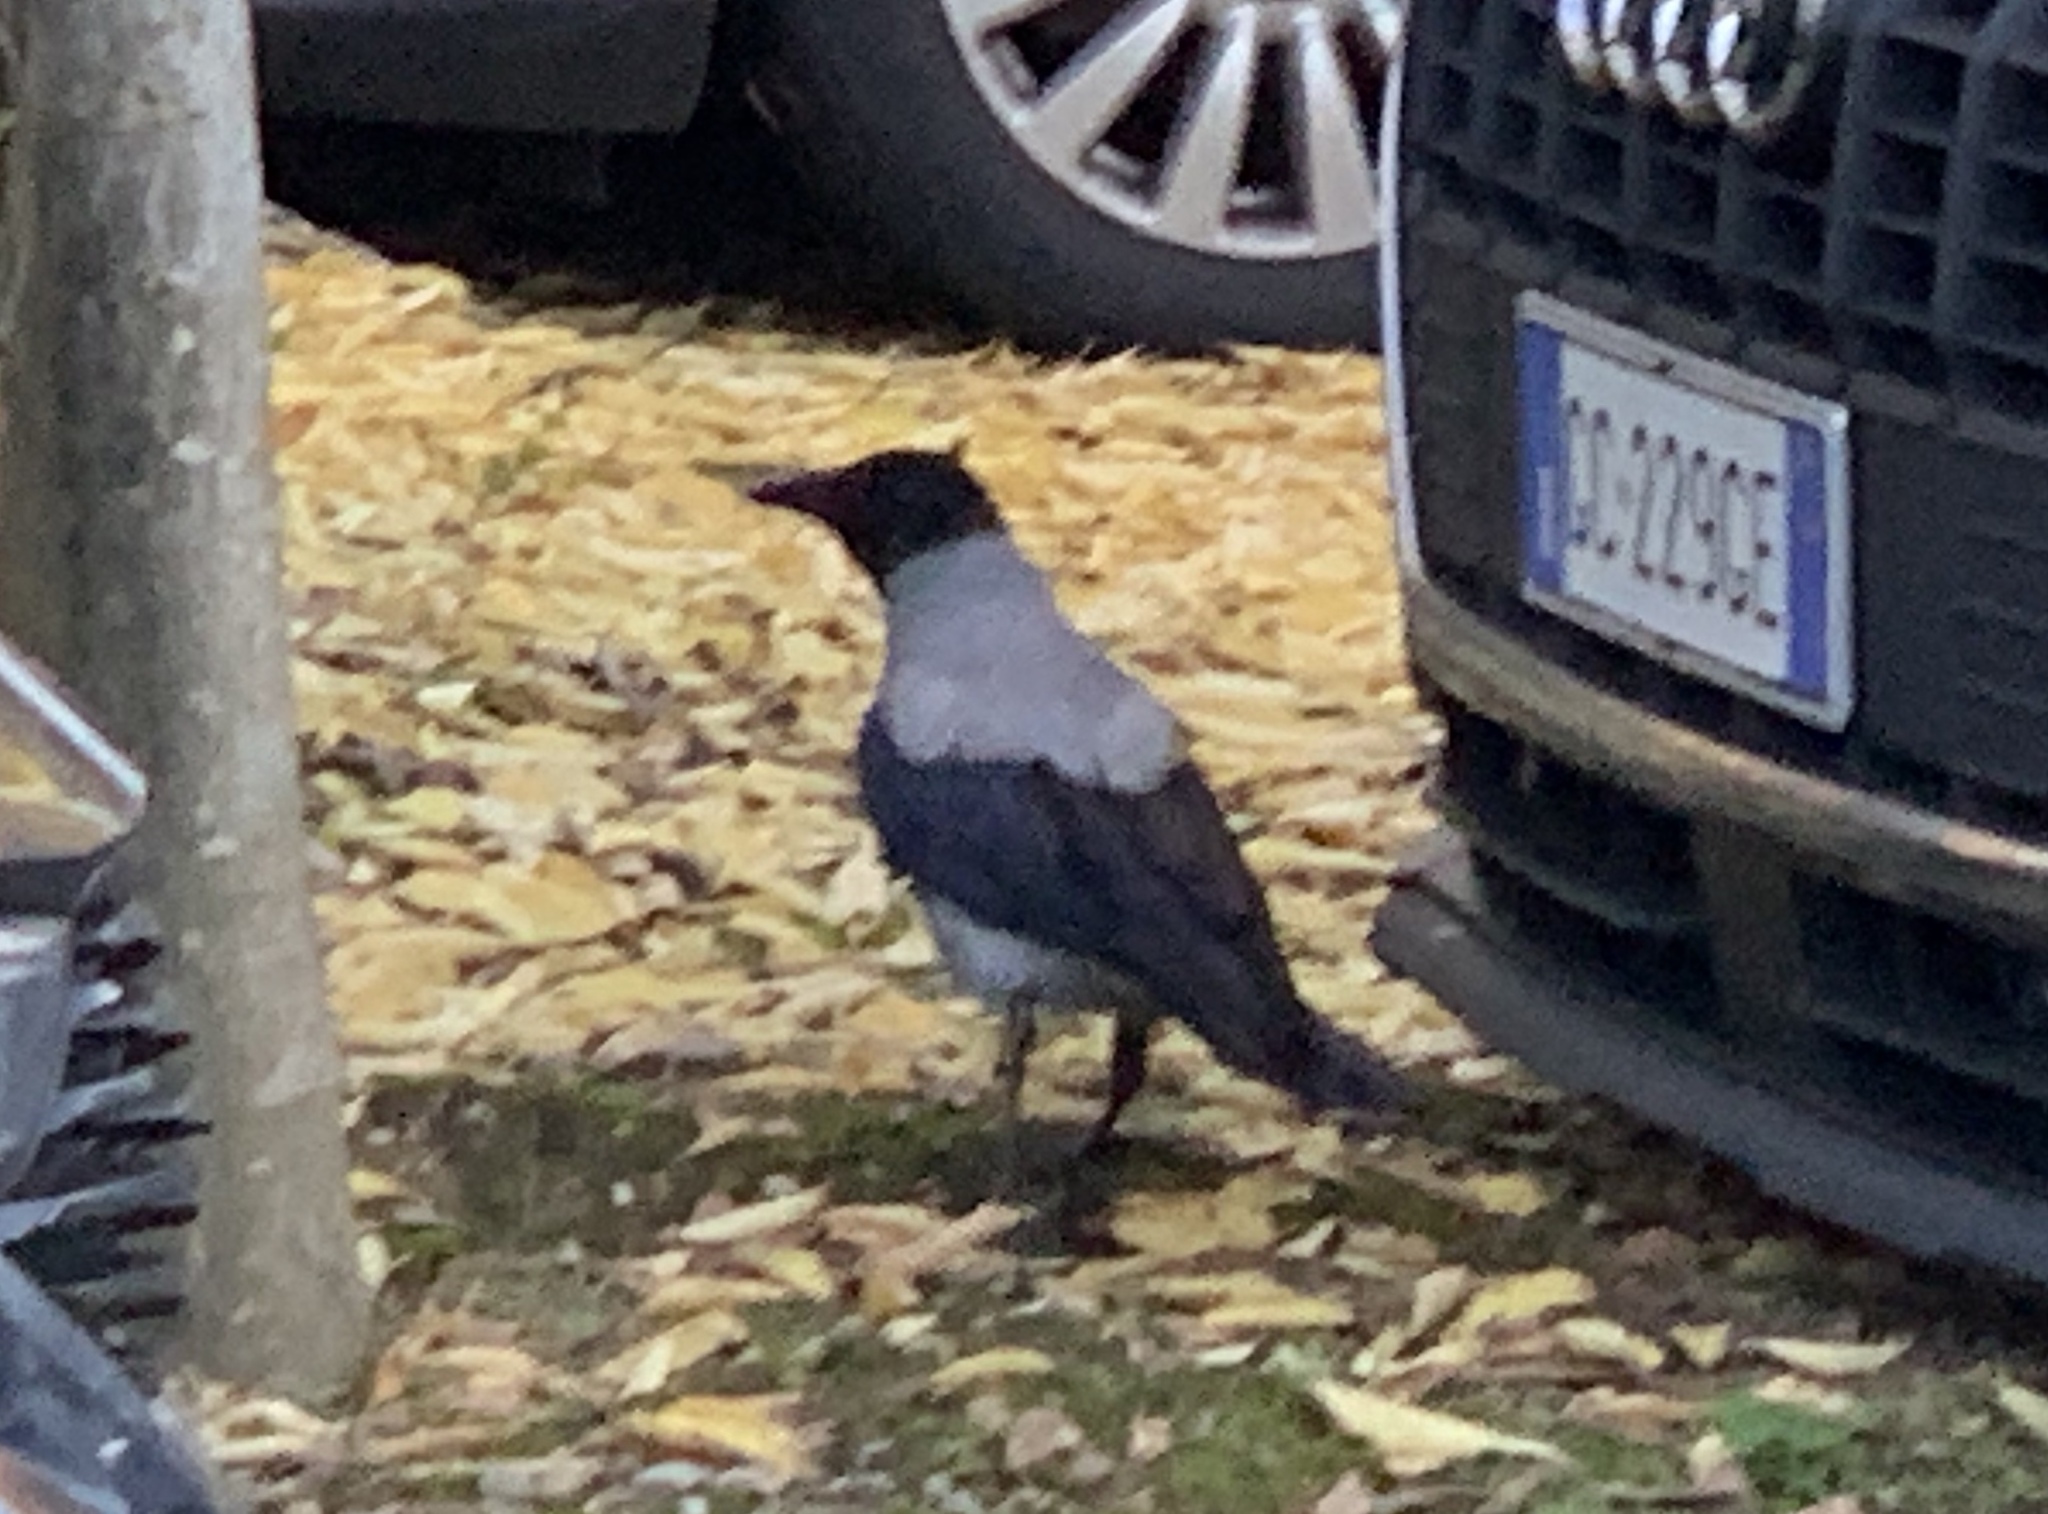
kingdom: Animalia
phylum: Chordata
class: Aves
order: Passeriformes
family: Corvidae
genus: Corvus
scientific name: Corvus cornix
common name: Hooded crow
